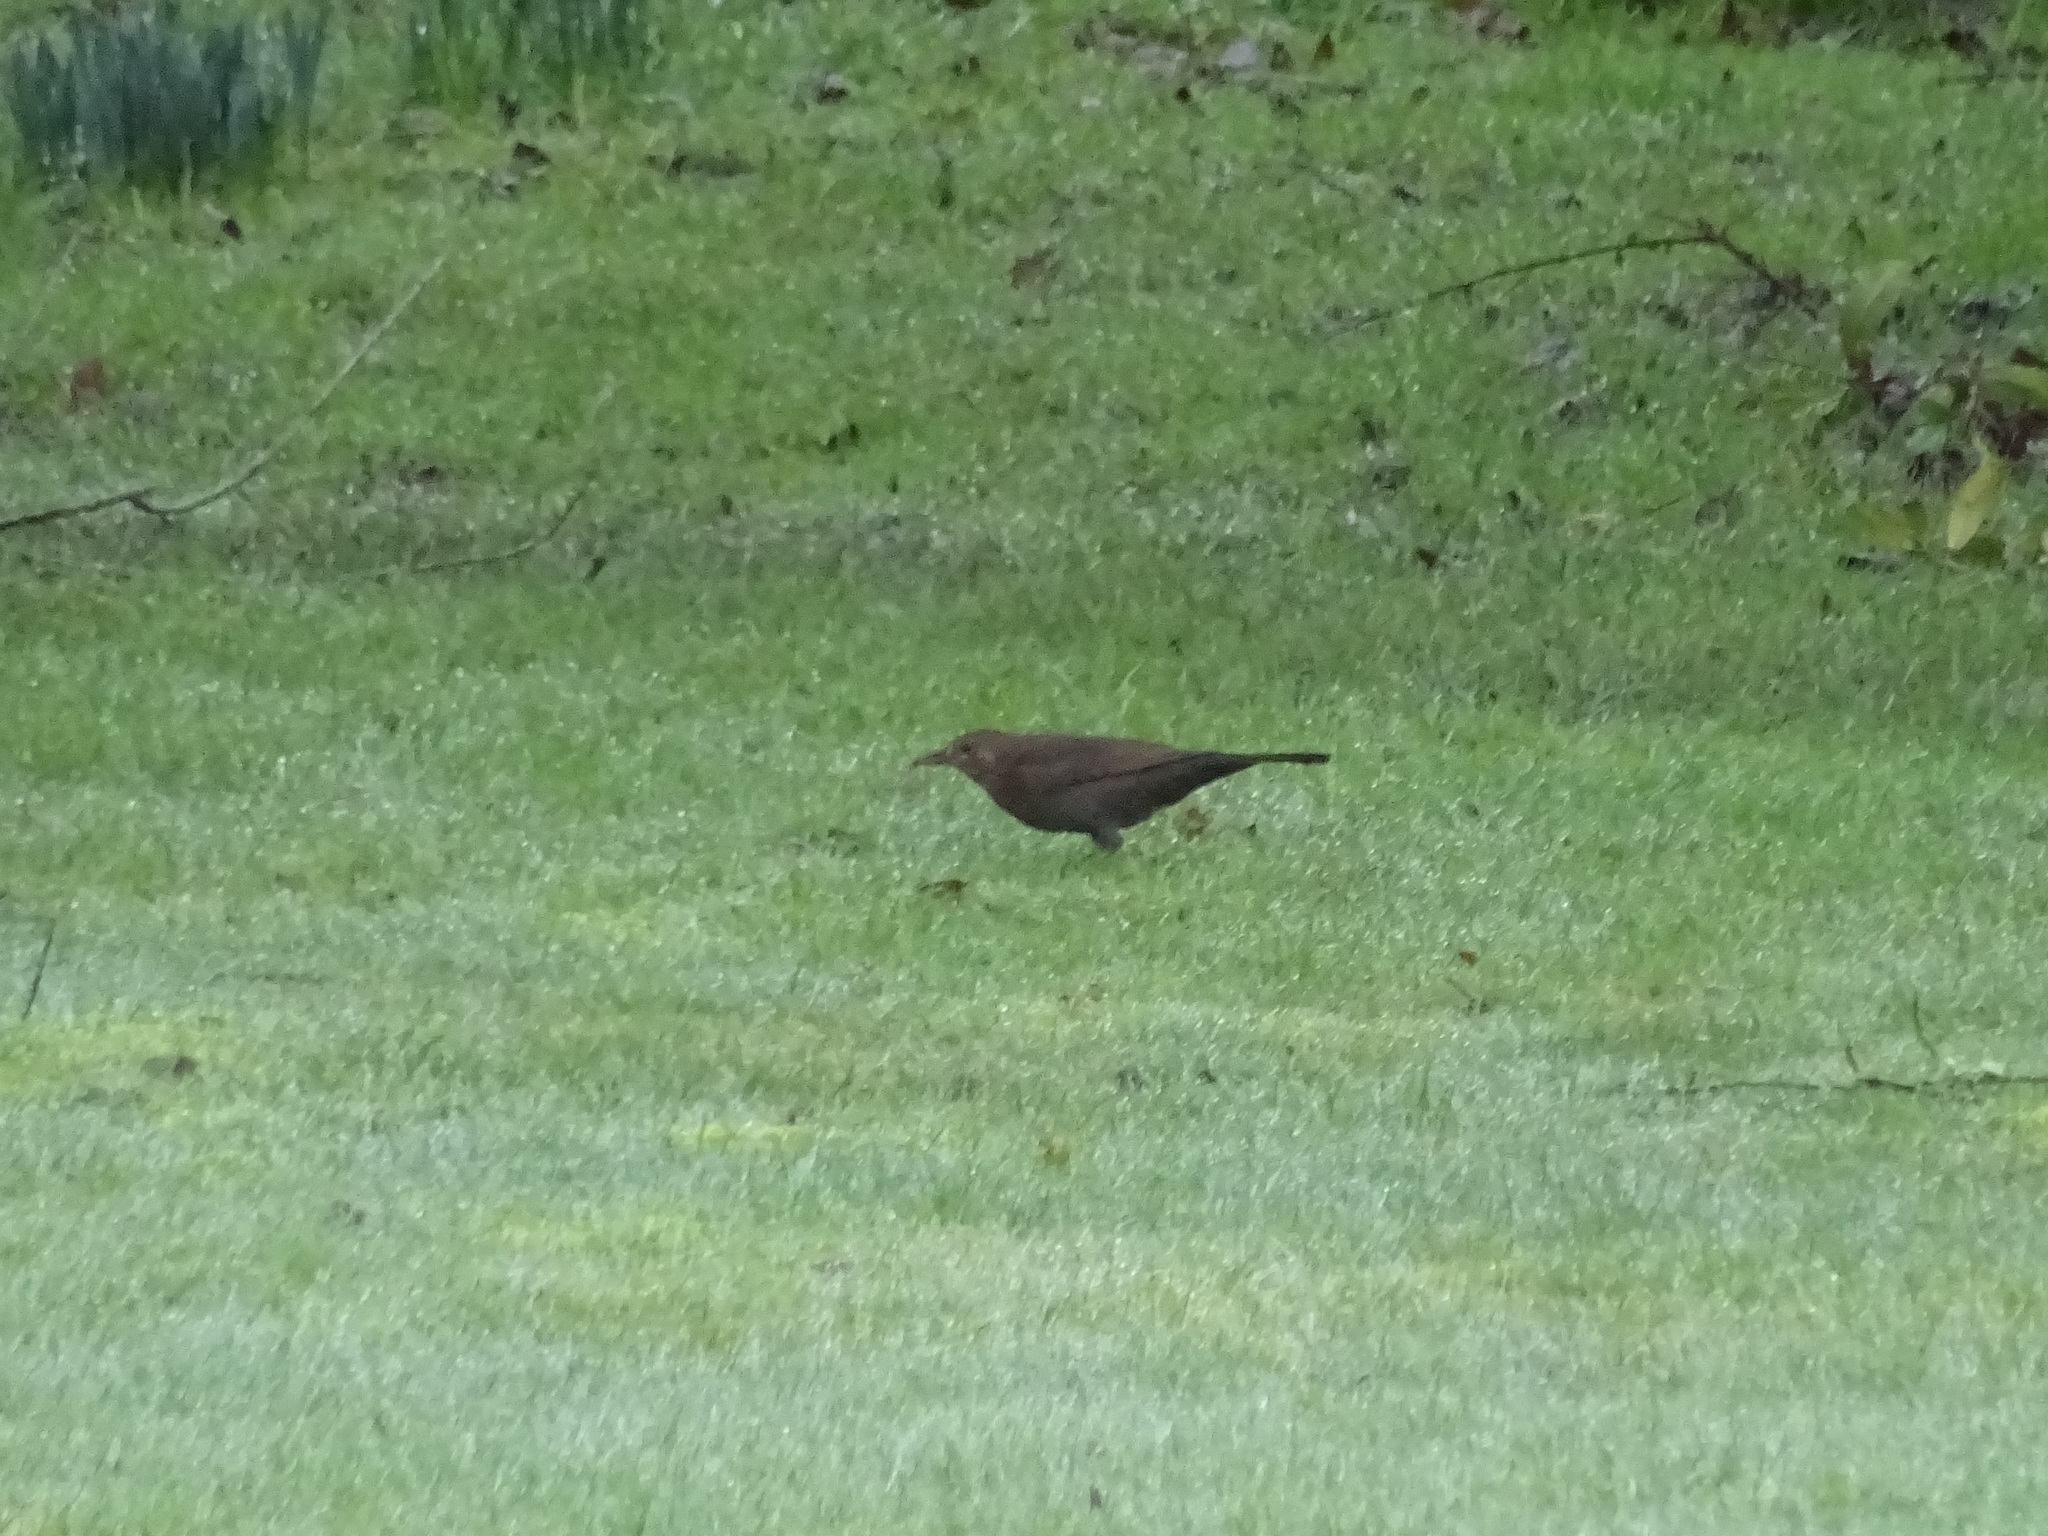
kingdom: Animalia
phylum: Chordata
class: Aves
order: Passeriformes
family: Turdidae
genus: Turdus
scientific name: Turdus merula
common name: Common blackbird
